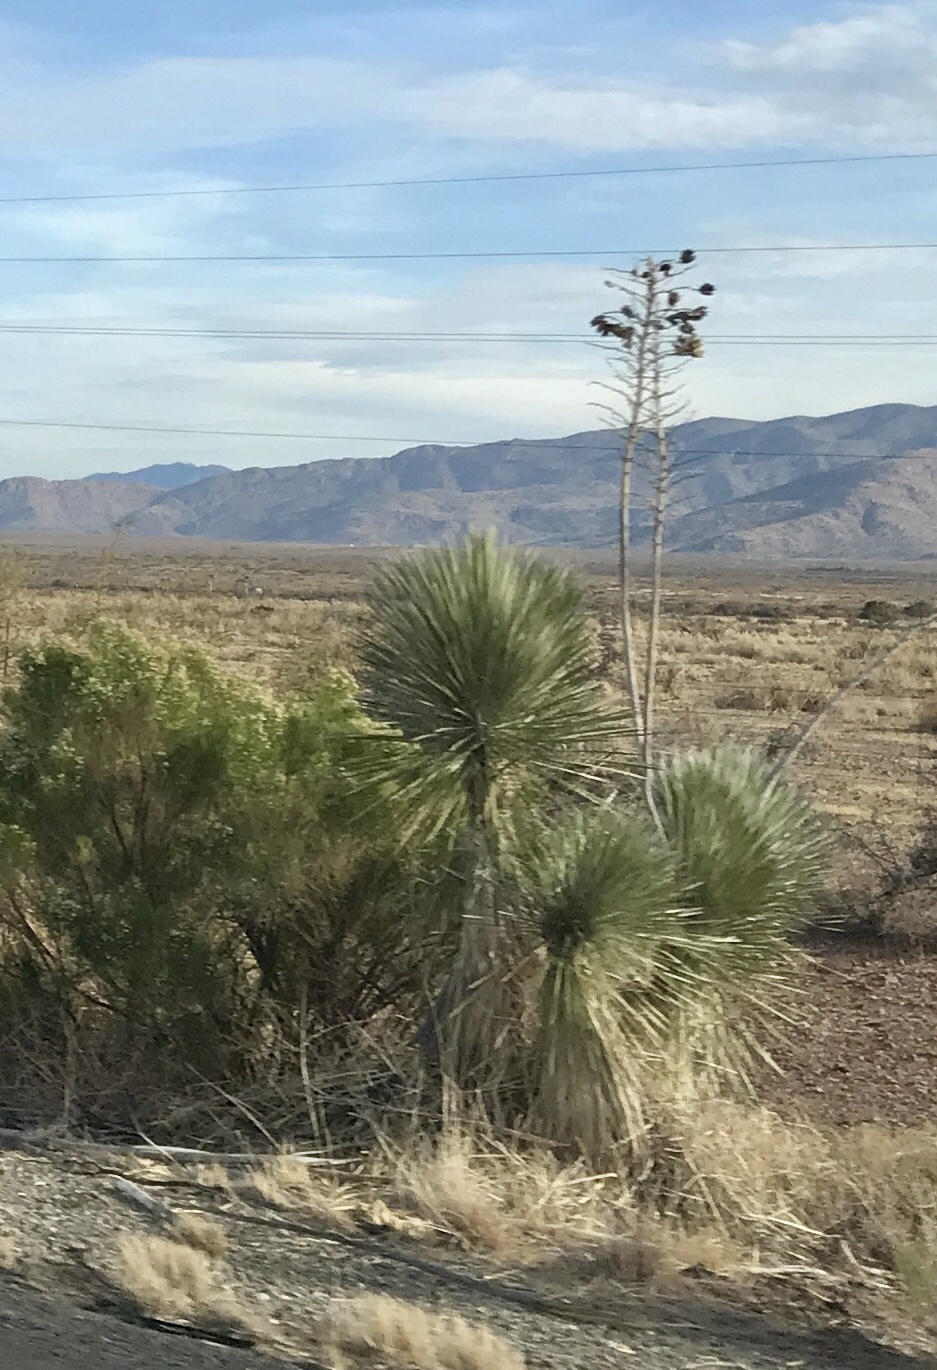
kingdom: Plantae
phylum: Tracheophyta
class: Liliopsida
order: Asparagales
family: Asparagaceae
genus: Yucca
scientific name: Yucca elata
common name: Palmella
